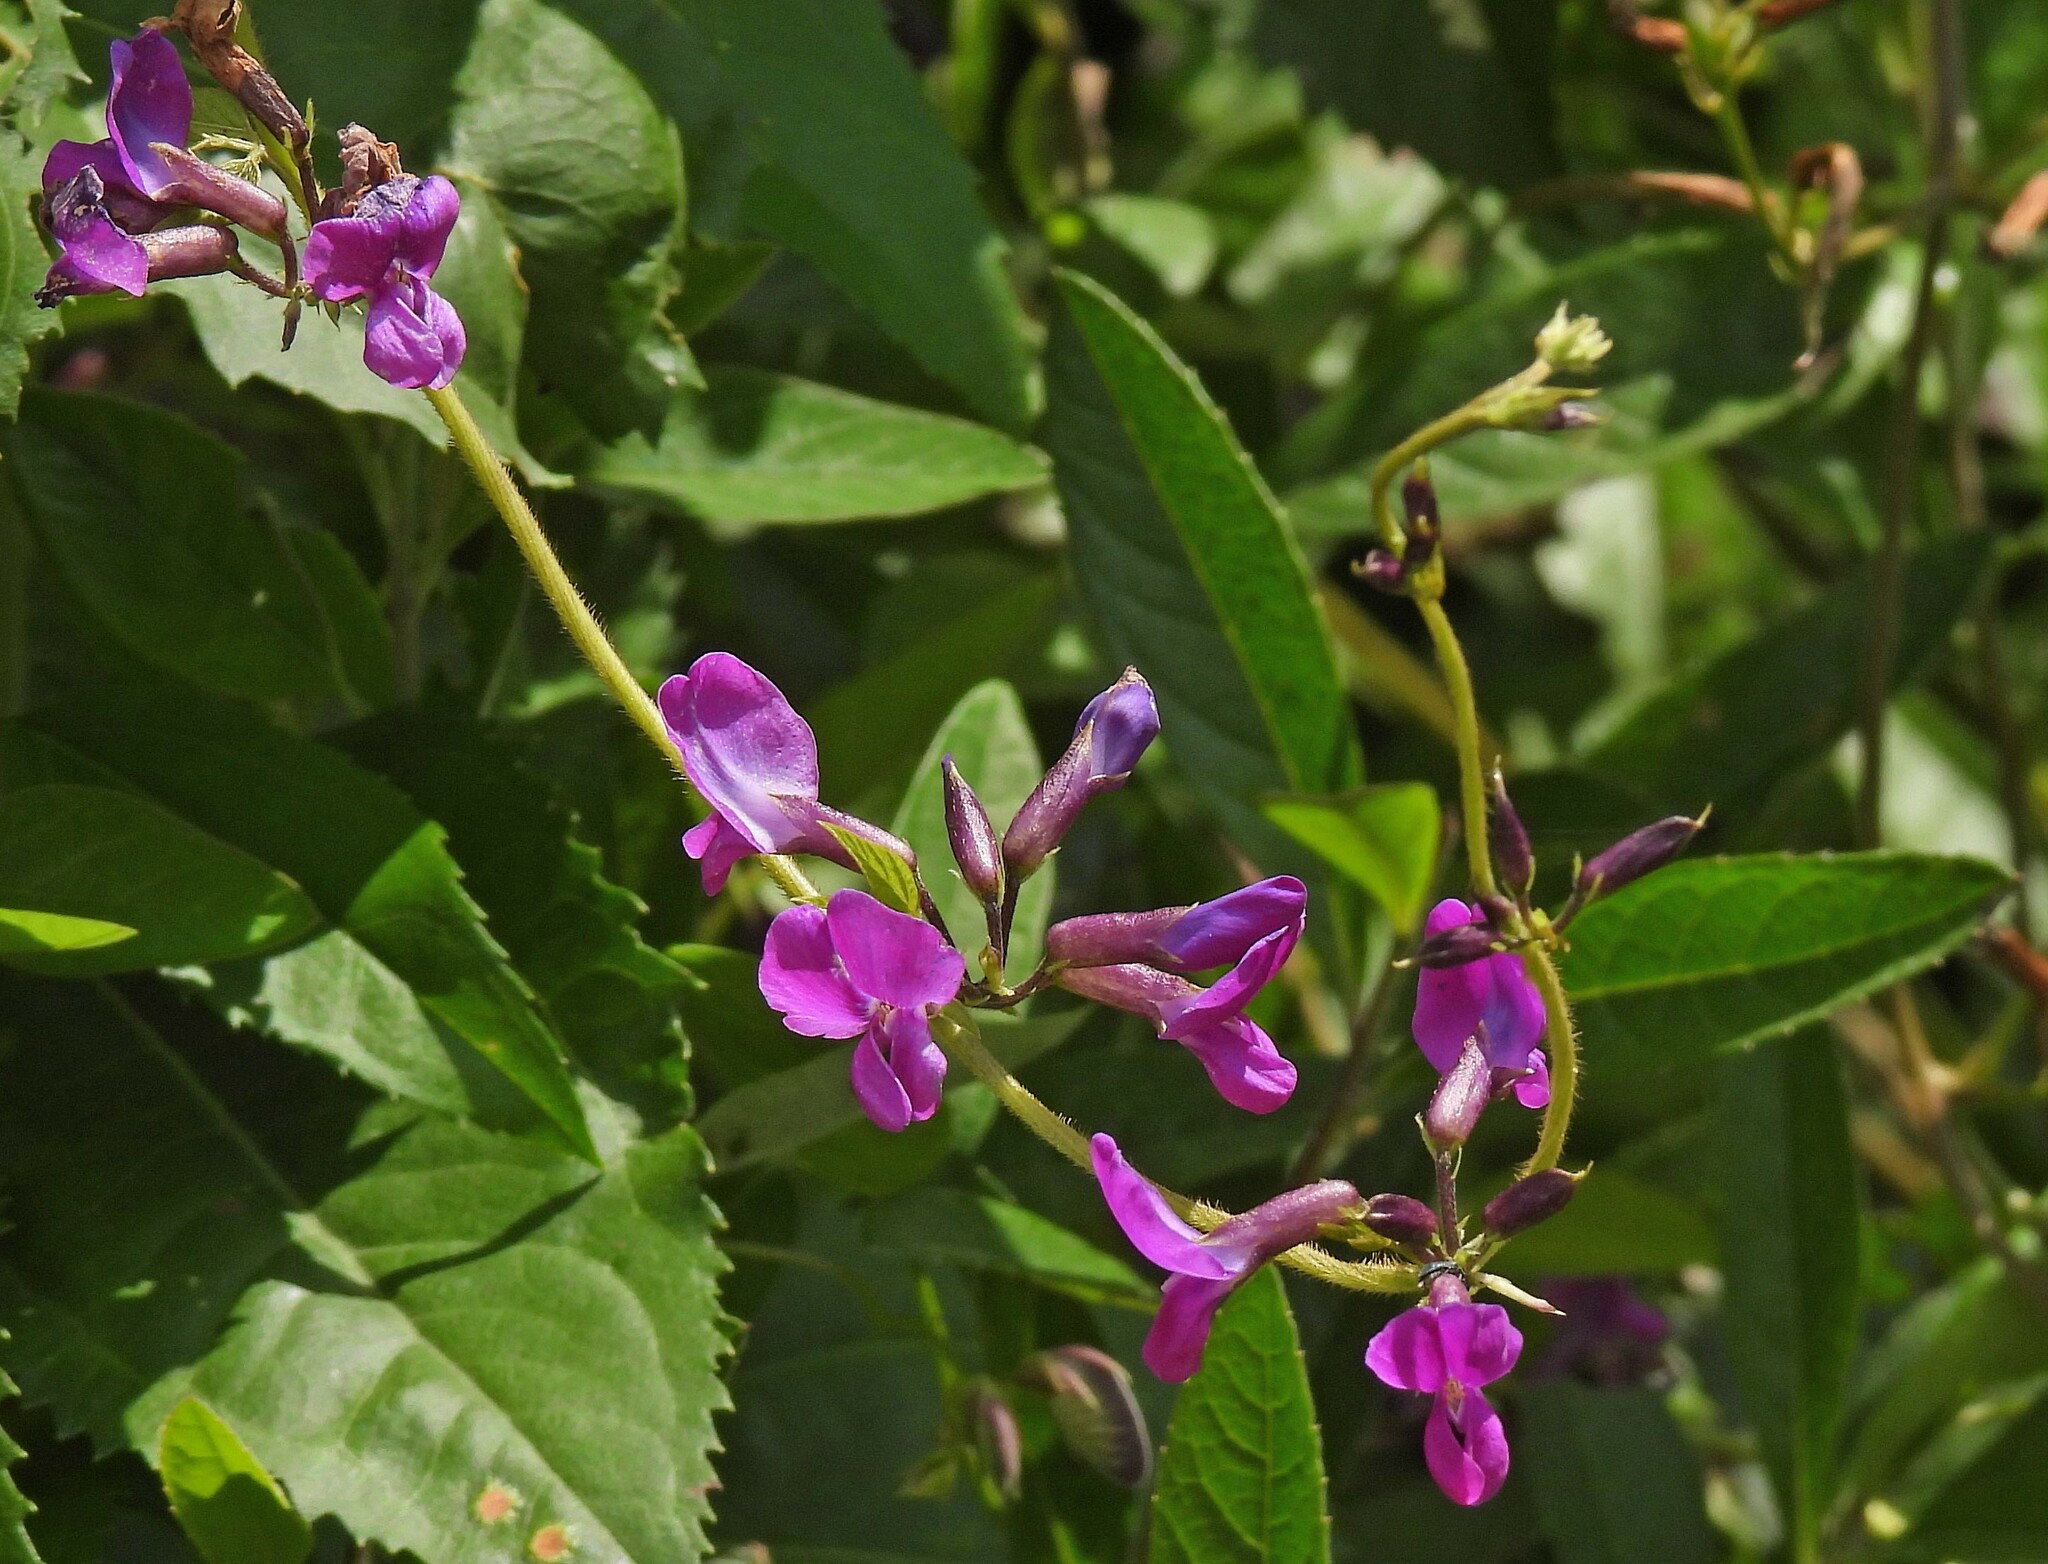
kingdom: Plantae
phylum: Tracheophyta
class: Magnoliopsida
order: Fabales
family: Fabaceae
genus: Cologania
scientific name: Cologania broussonetii
